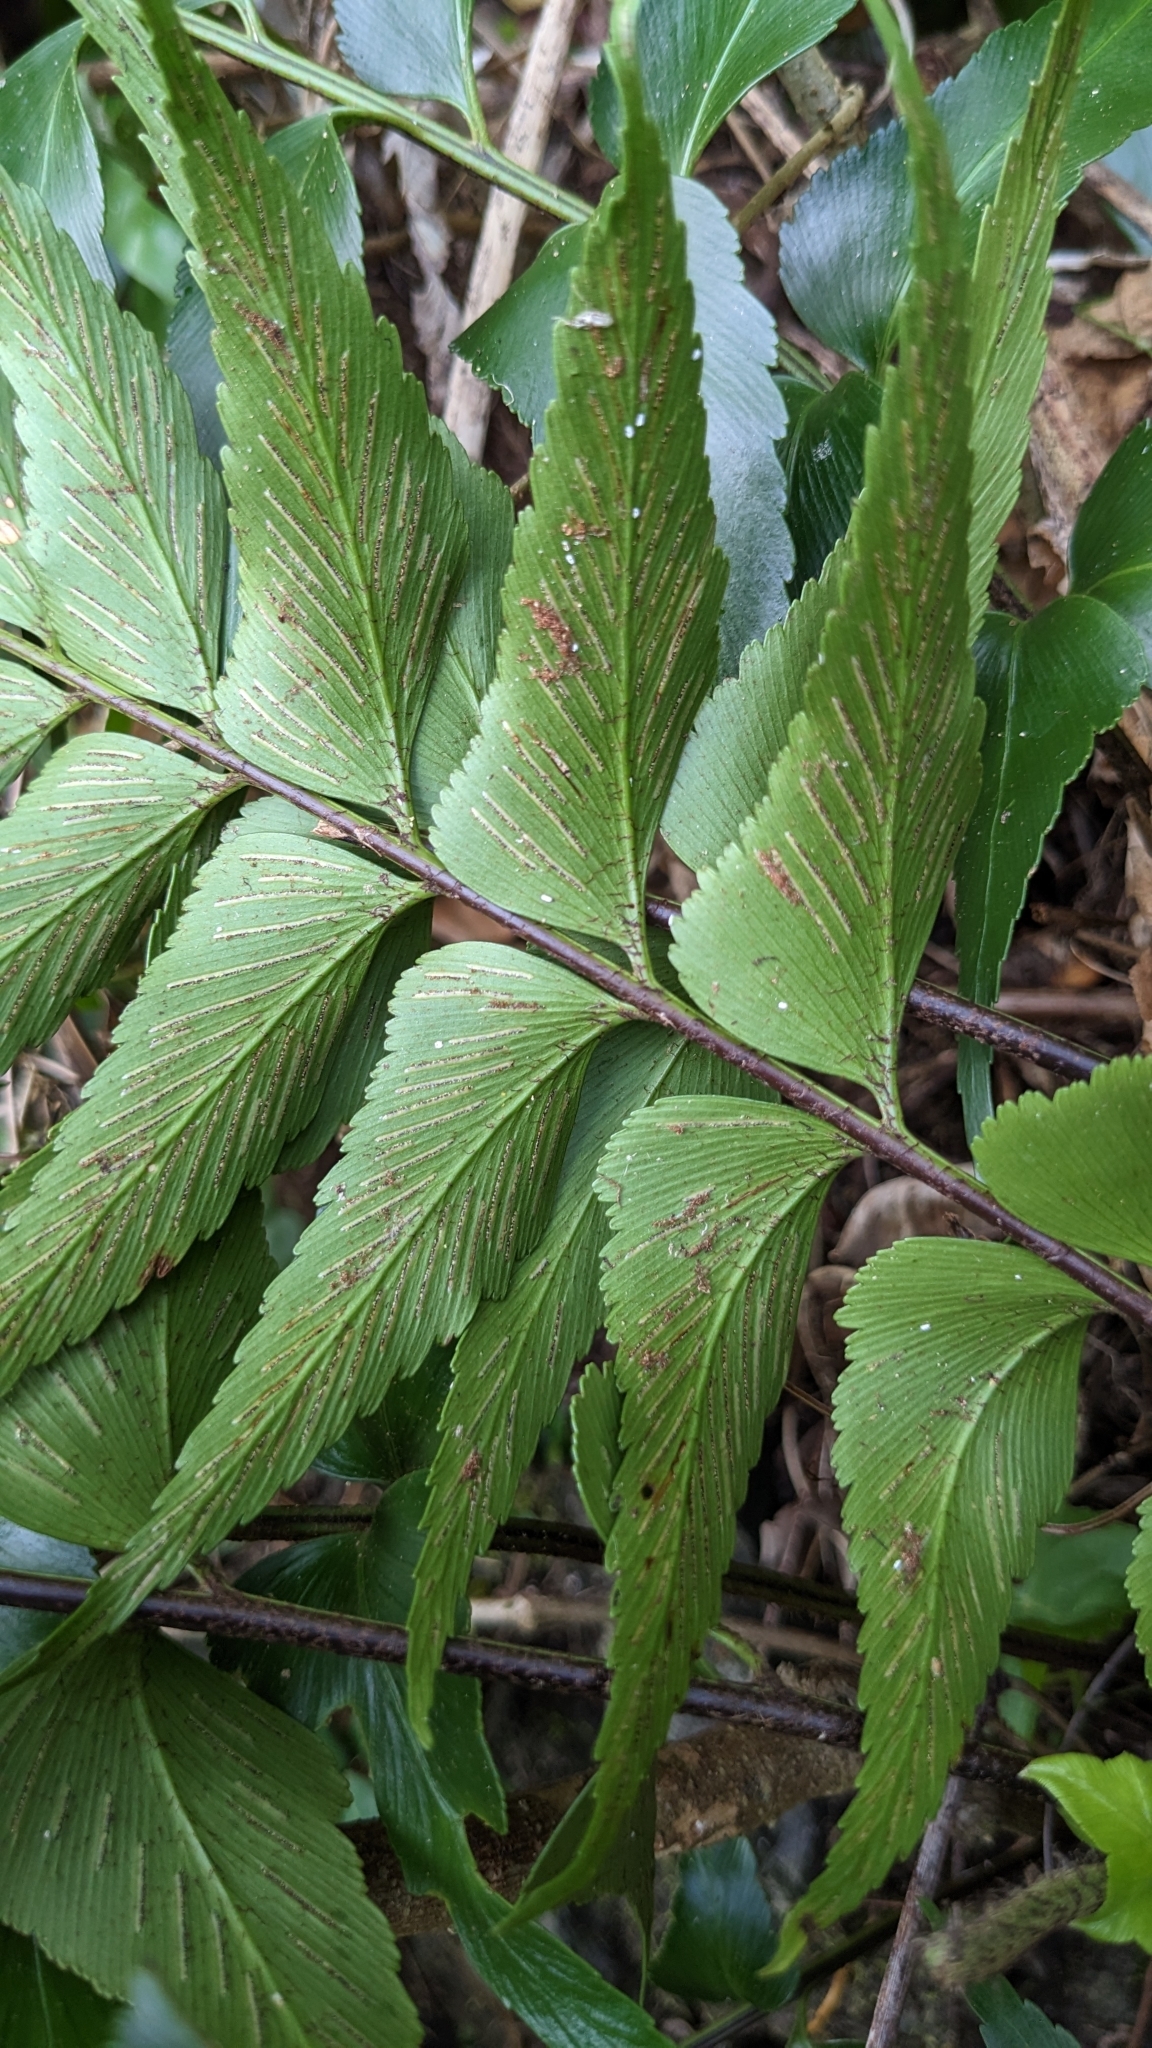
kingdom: Plantae
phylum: Tracheophyta
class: Polypodiopsida
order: Polypodiales
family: Aspleniaceae
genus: Asplenium
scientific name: Asplenium falcatum
